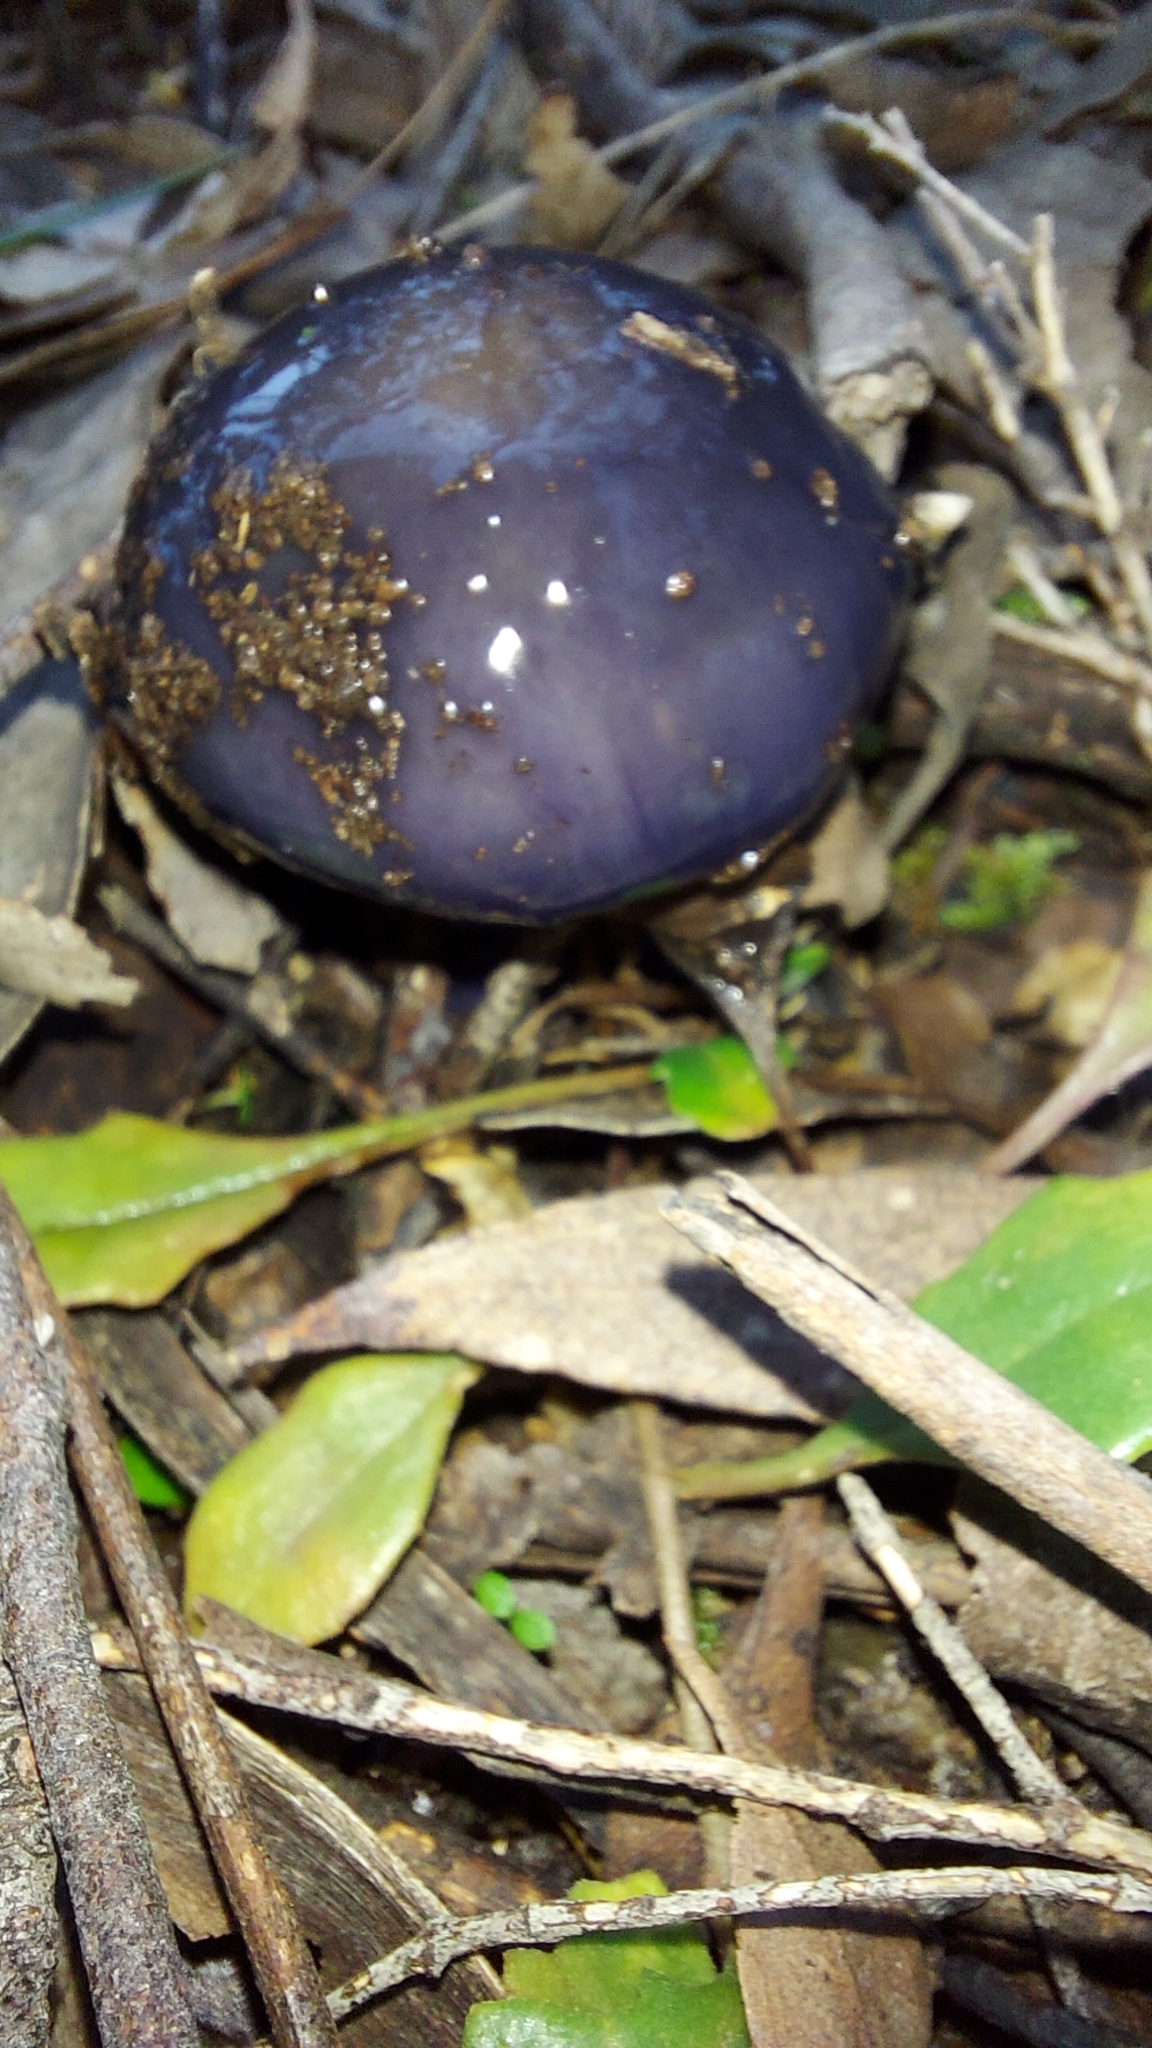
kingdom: Fungi
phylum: Basidiomycota
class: Agaricomycetes
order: Agaricales
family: Cortinariaceae
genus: Cortinarius
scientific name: Cortinarius archeri
